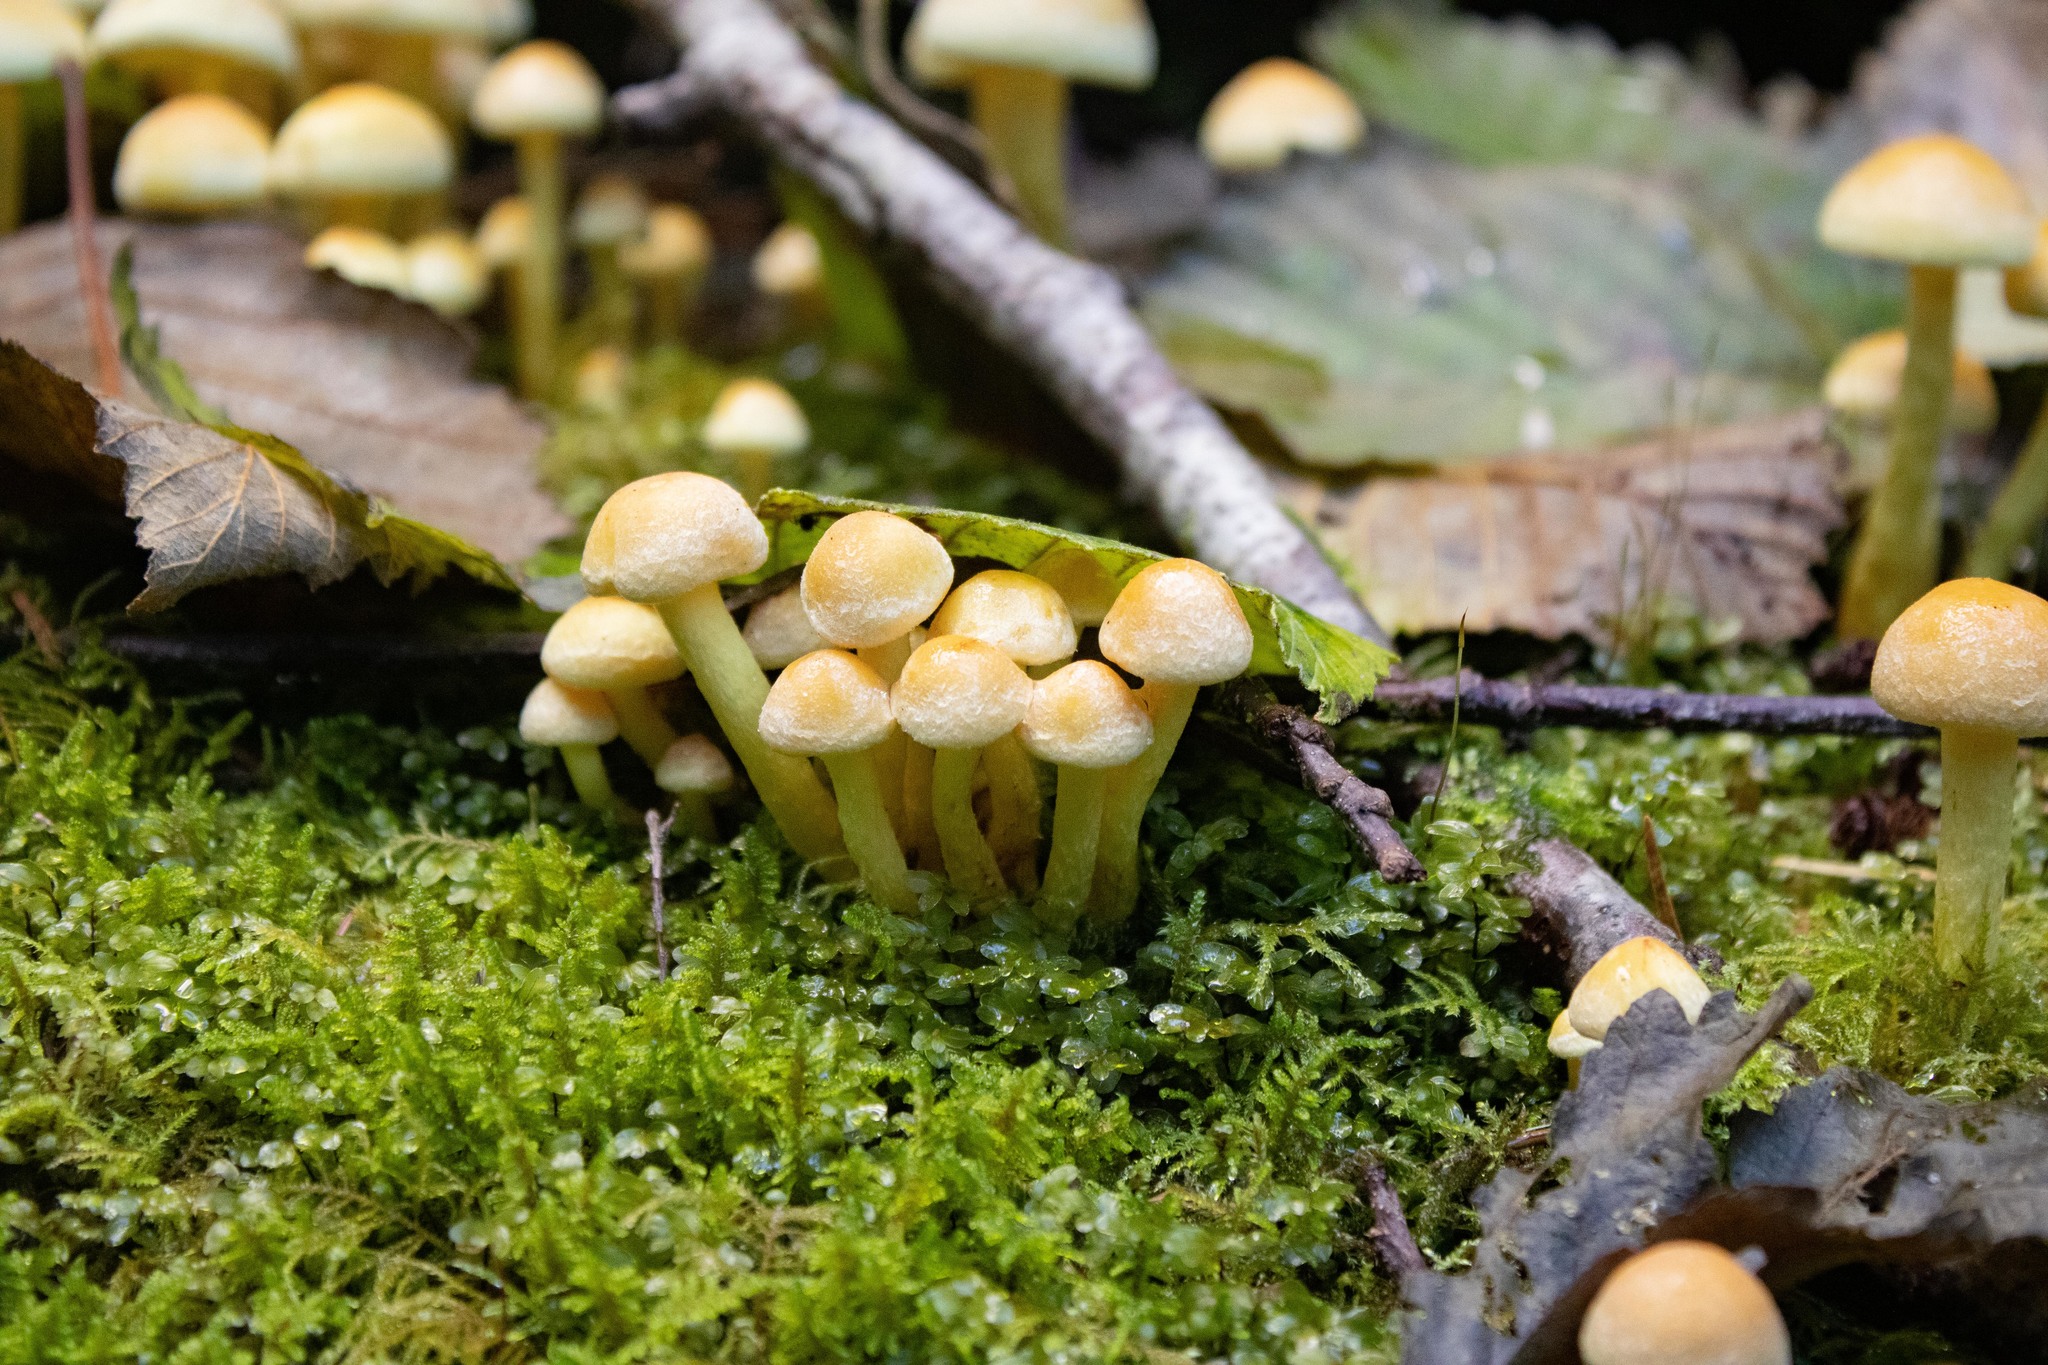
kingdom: Fungi
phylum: Basidiomycota
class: Agaricomycetes
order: Agaricales
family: Strophariaceae
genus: Hypholoma
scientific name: Hypholoma fasciculare
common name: Sulphur tuft
